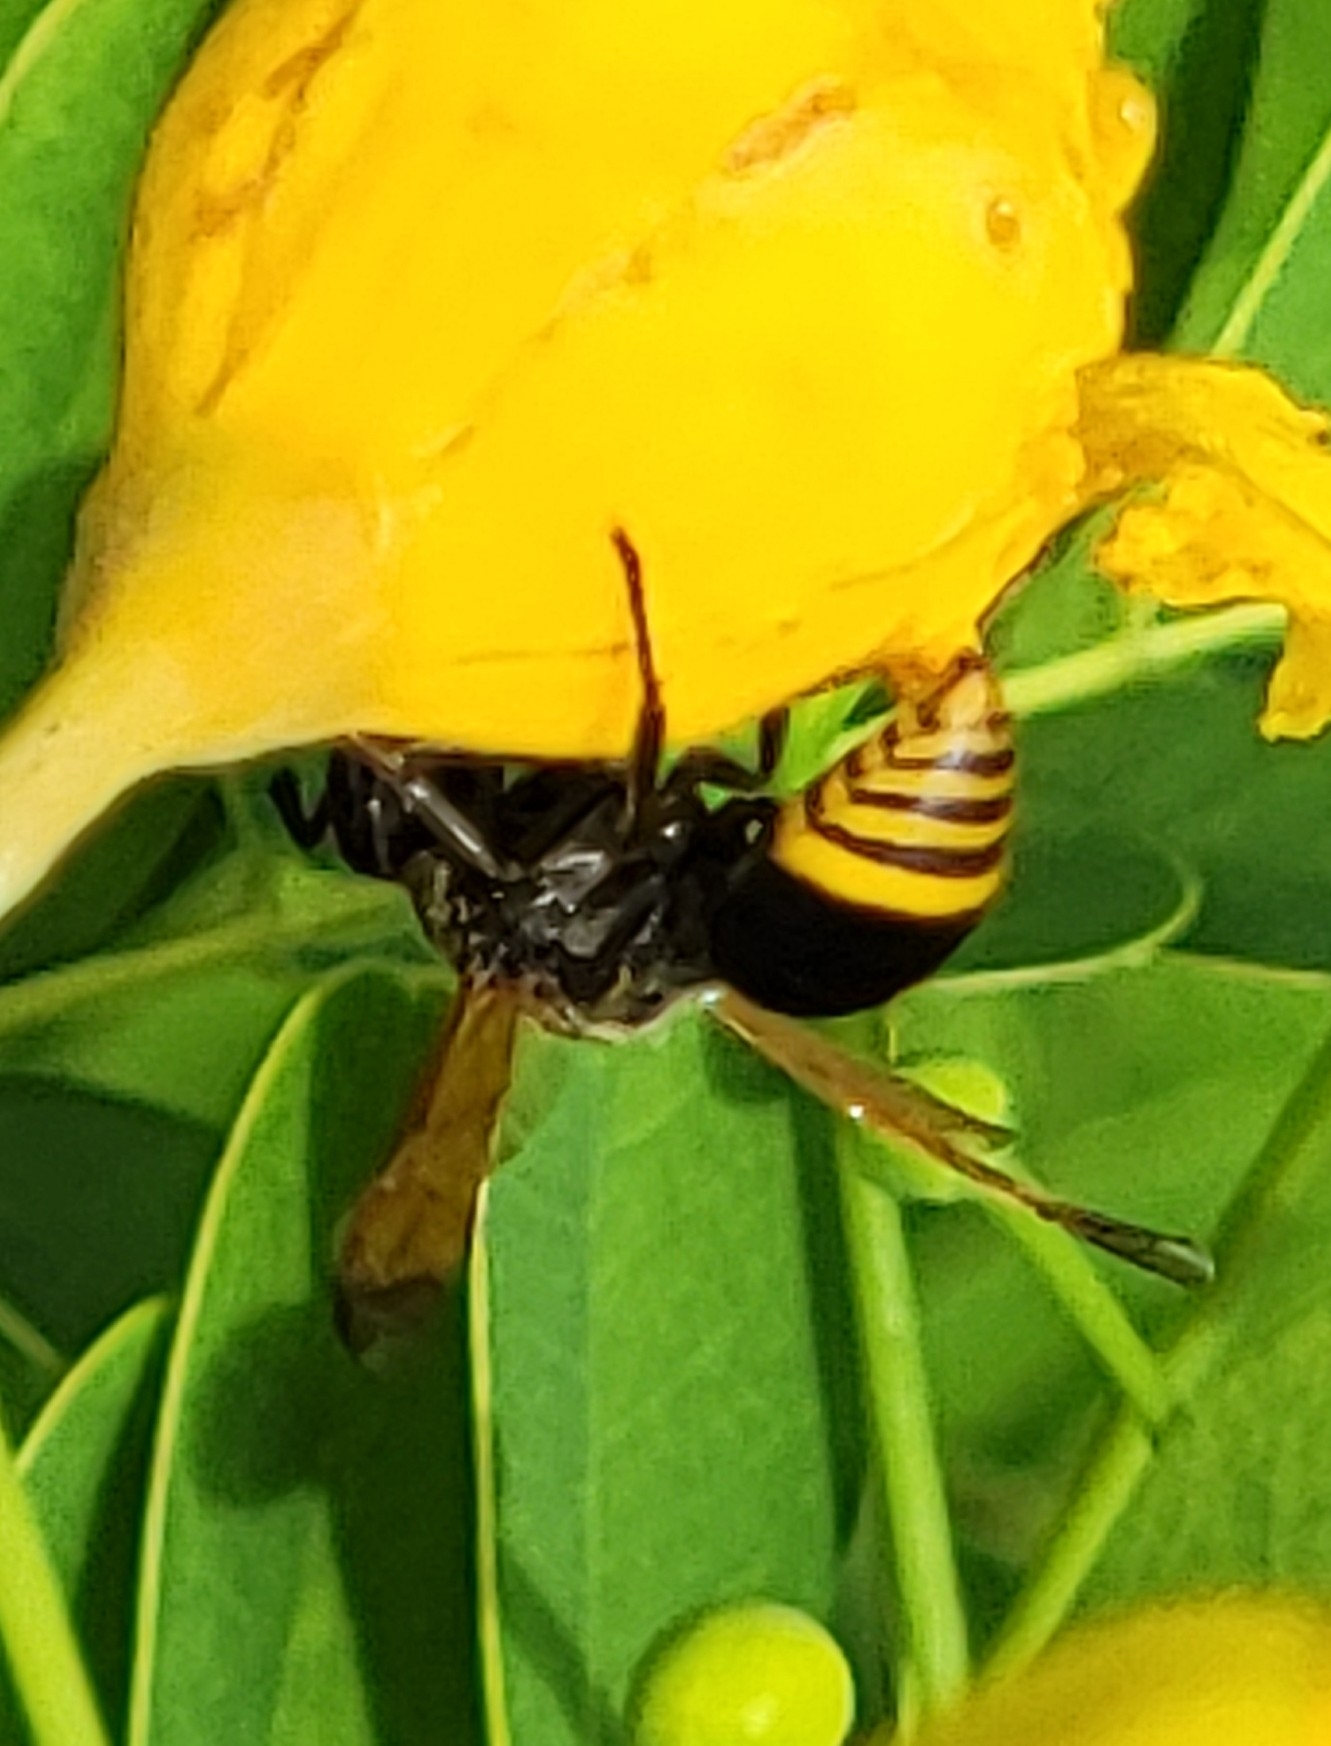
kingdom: Animalia
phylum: Arthropoda
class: Insecta
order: Hymenoptera
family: Eumenidae
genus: Pachodynerus
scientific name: Pachodynerus nasidens
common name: Key hole wasp
